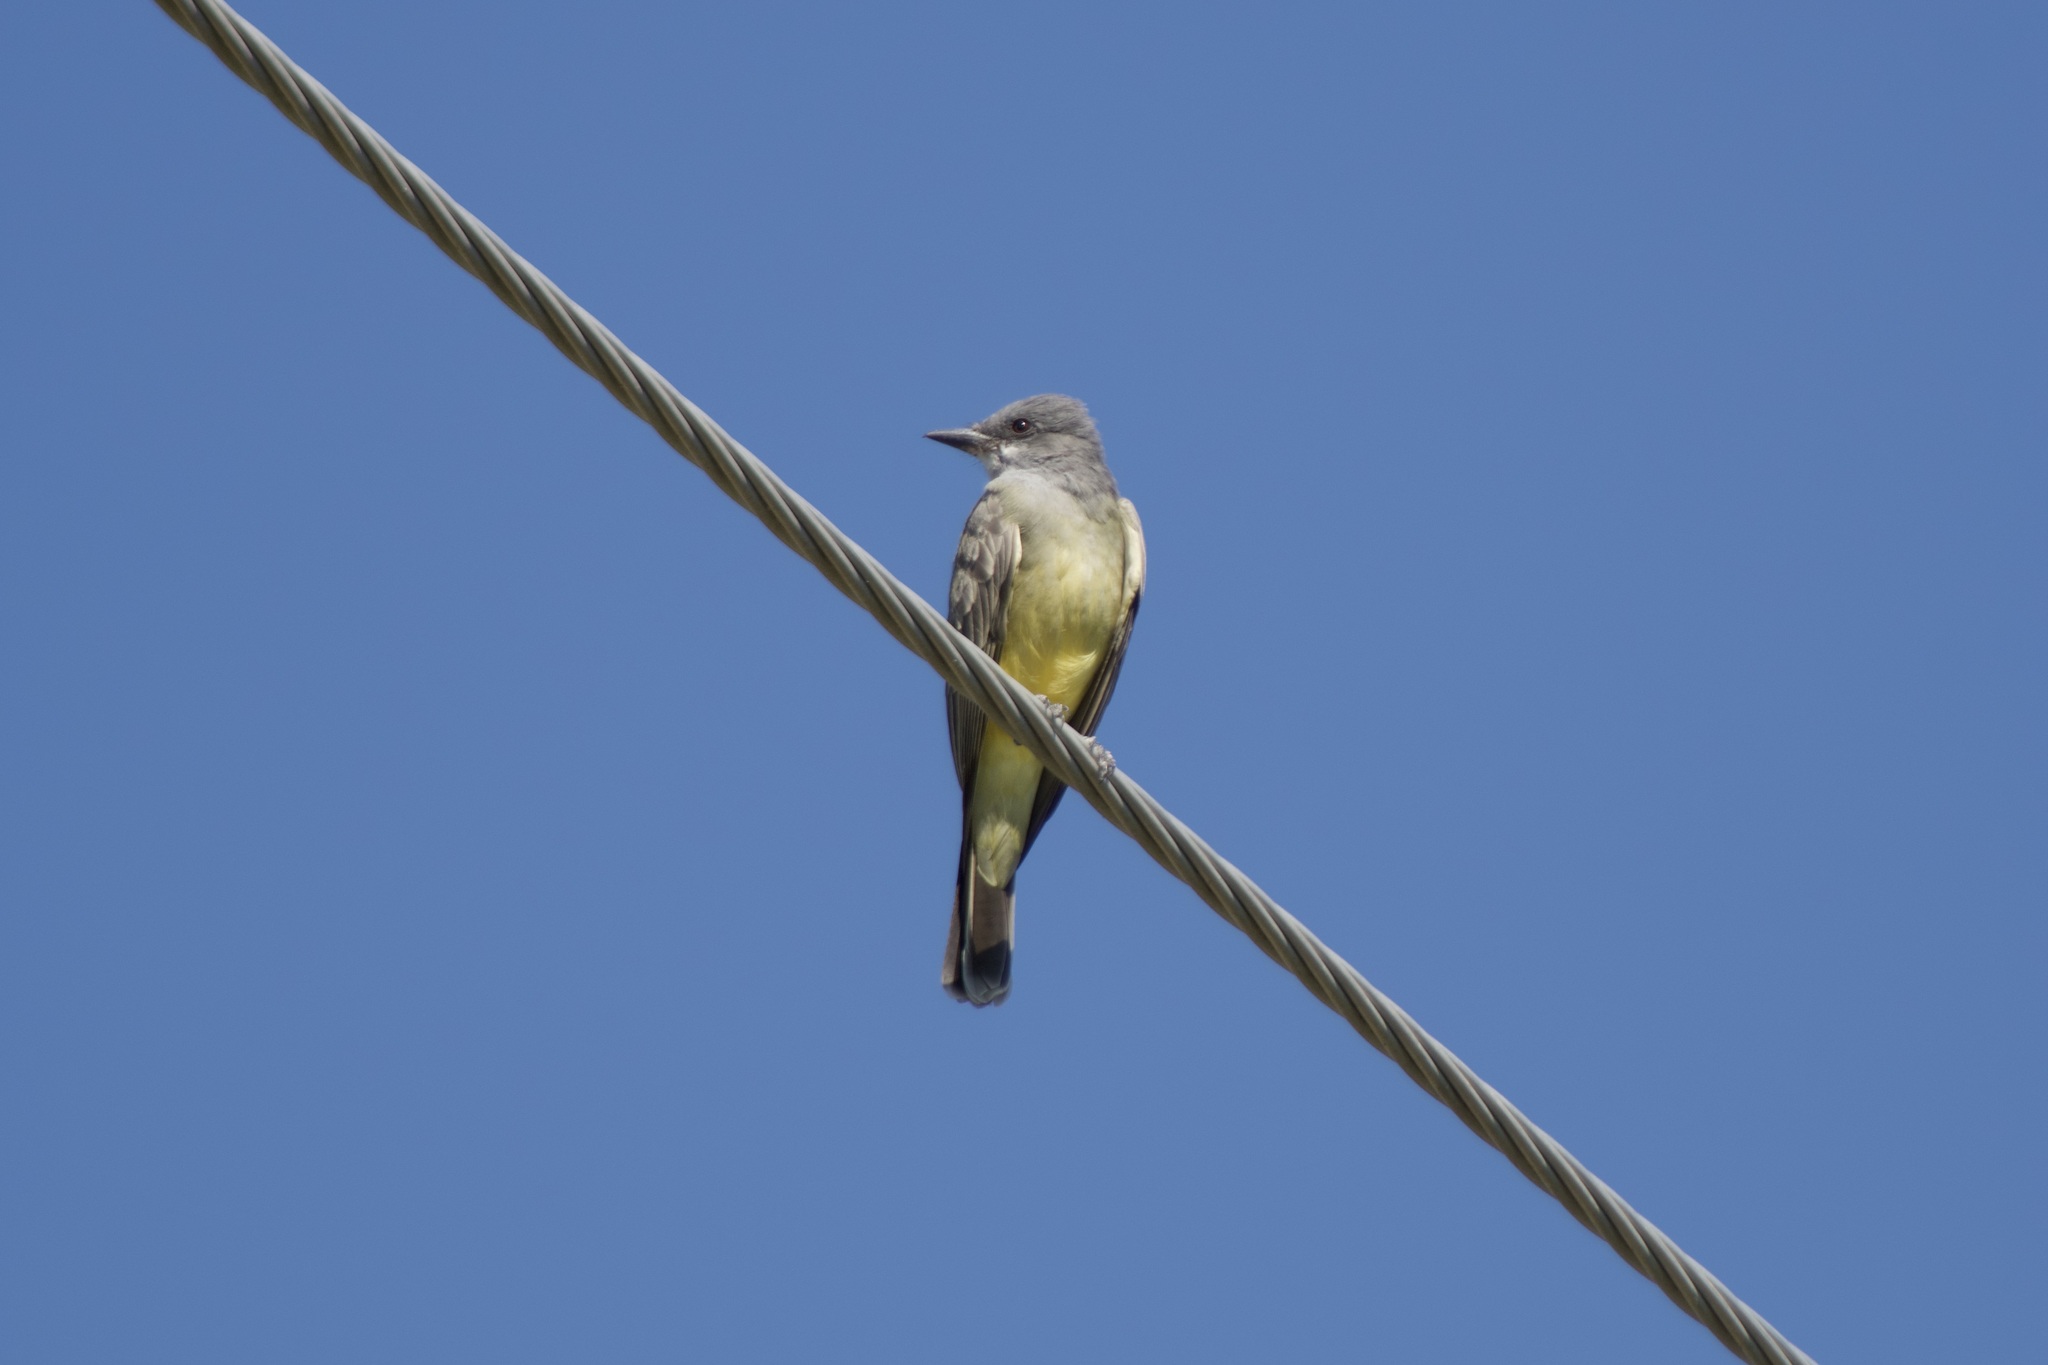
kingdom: Animalia
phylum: Chordata
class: Aves
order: Passeriformes
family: Tyrannidae
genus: Tyrannus
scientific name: Tyrannus vociferans
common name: Cassin's kingbird
